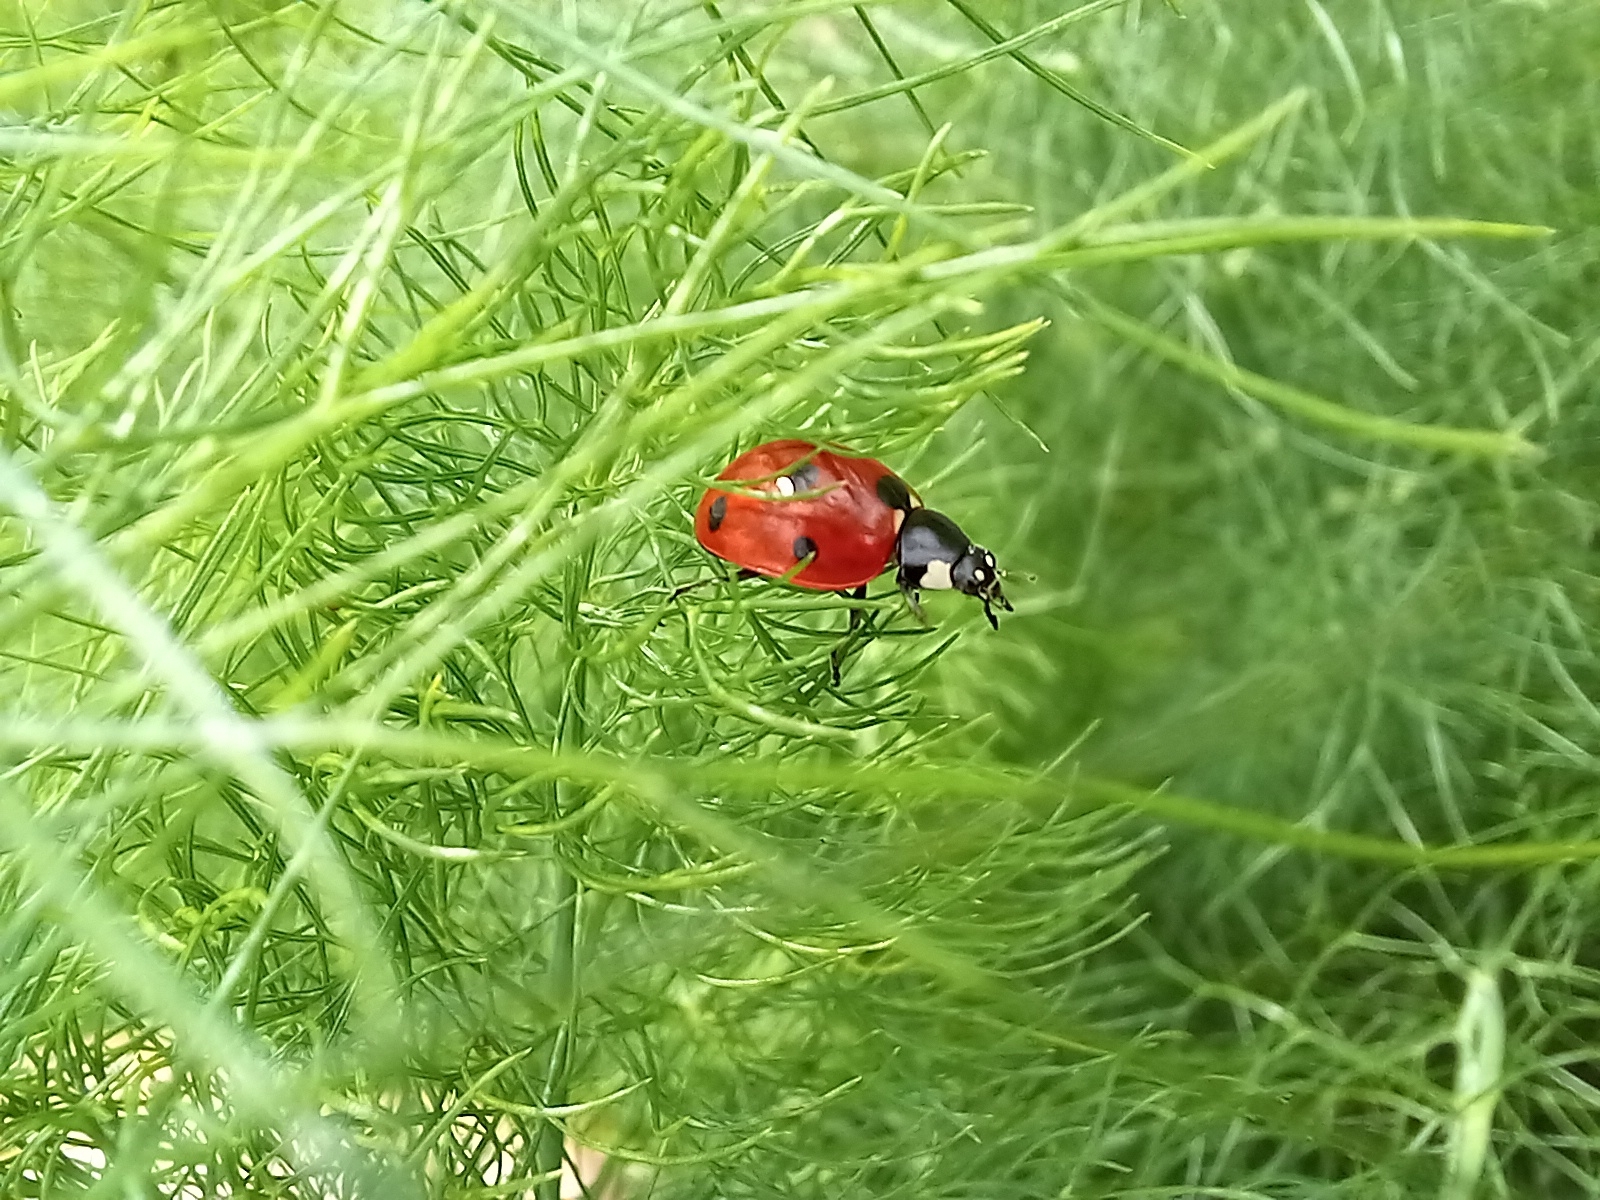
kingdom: Animalia
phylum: Arthropoda
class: Insecta
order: Coleoptera
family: Coccinellidae
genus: Coccinella
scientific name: Coccinella septempunctata
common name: Sevenspotted lady beetle
